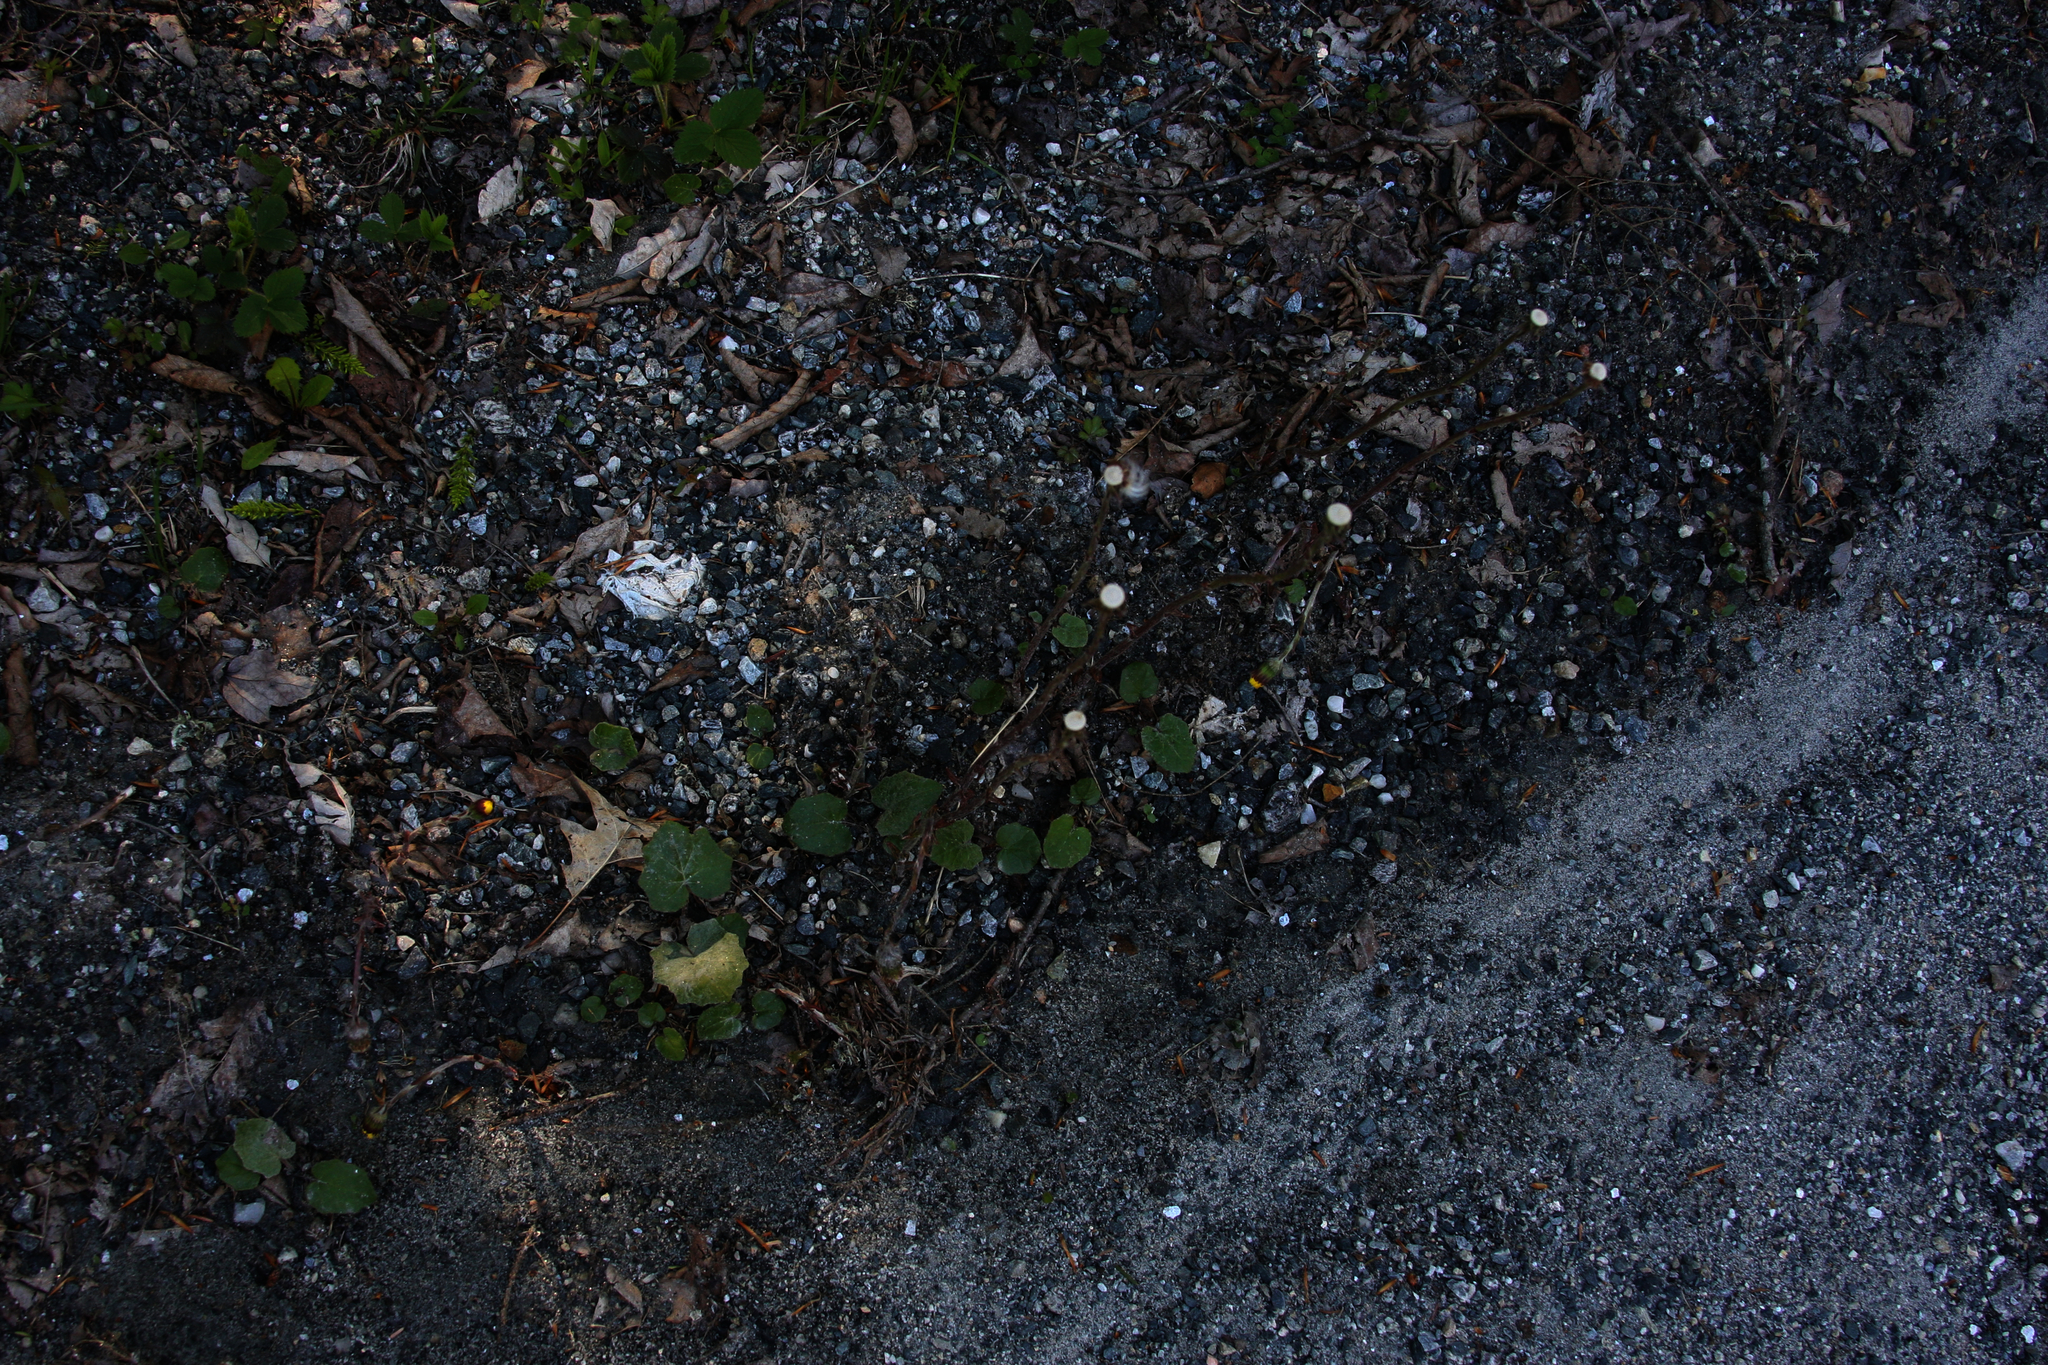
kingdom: Plantae
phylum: Tracheophyta
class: Magnoliopsida
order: Asterales
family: Asteraceae
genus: Tussilago
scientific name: Tussilago farfara
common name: Coltsfoot
